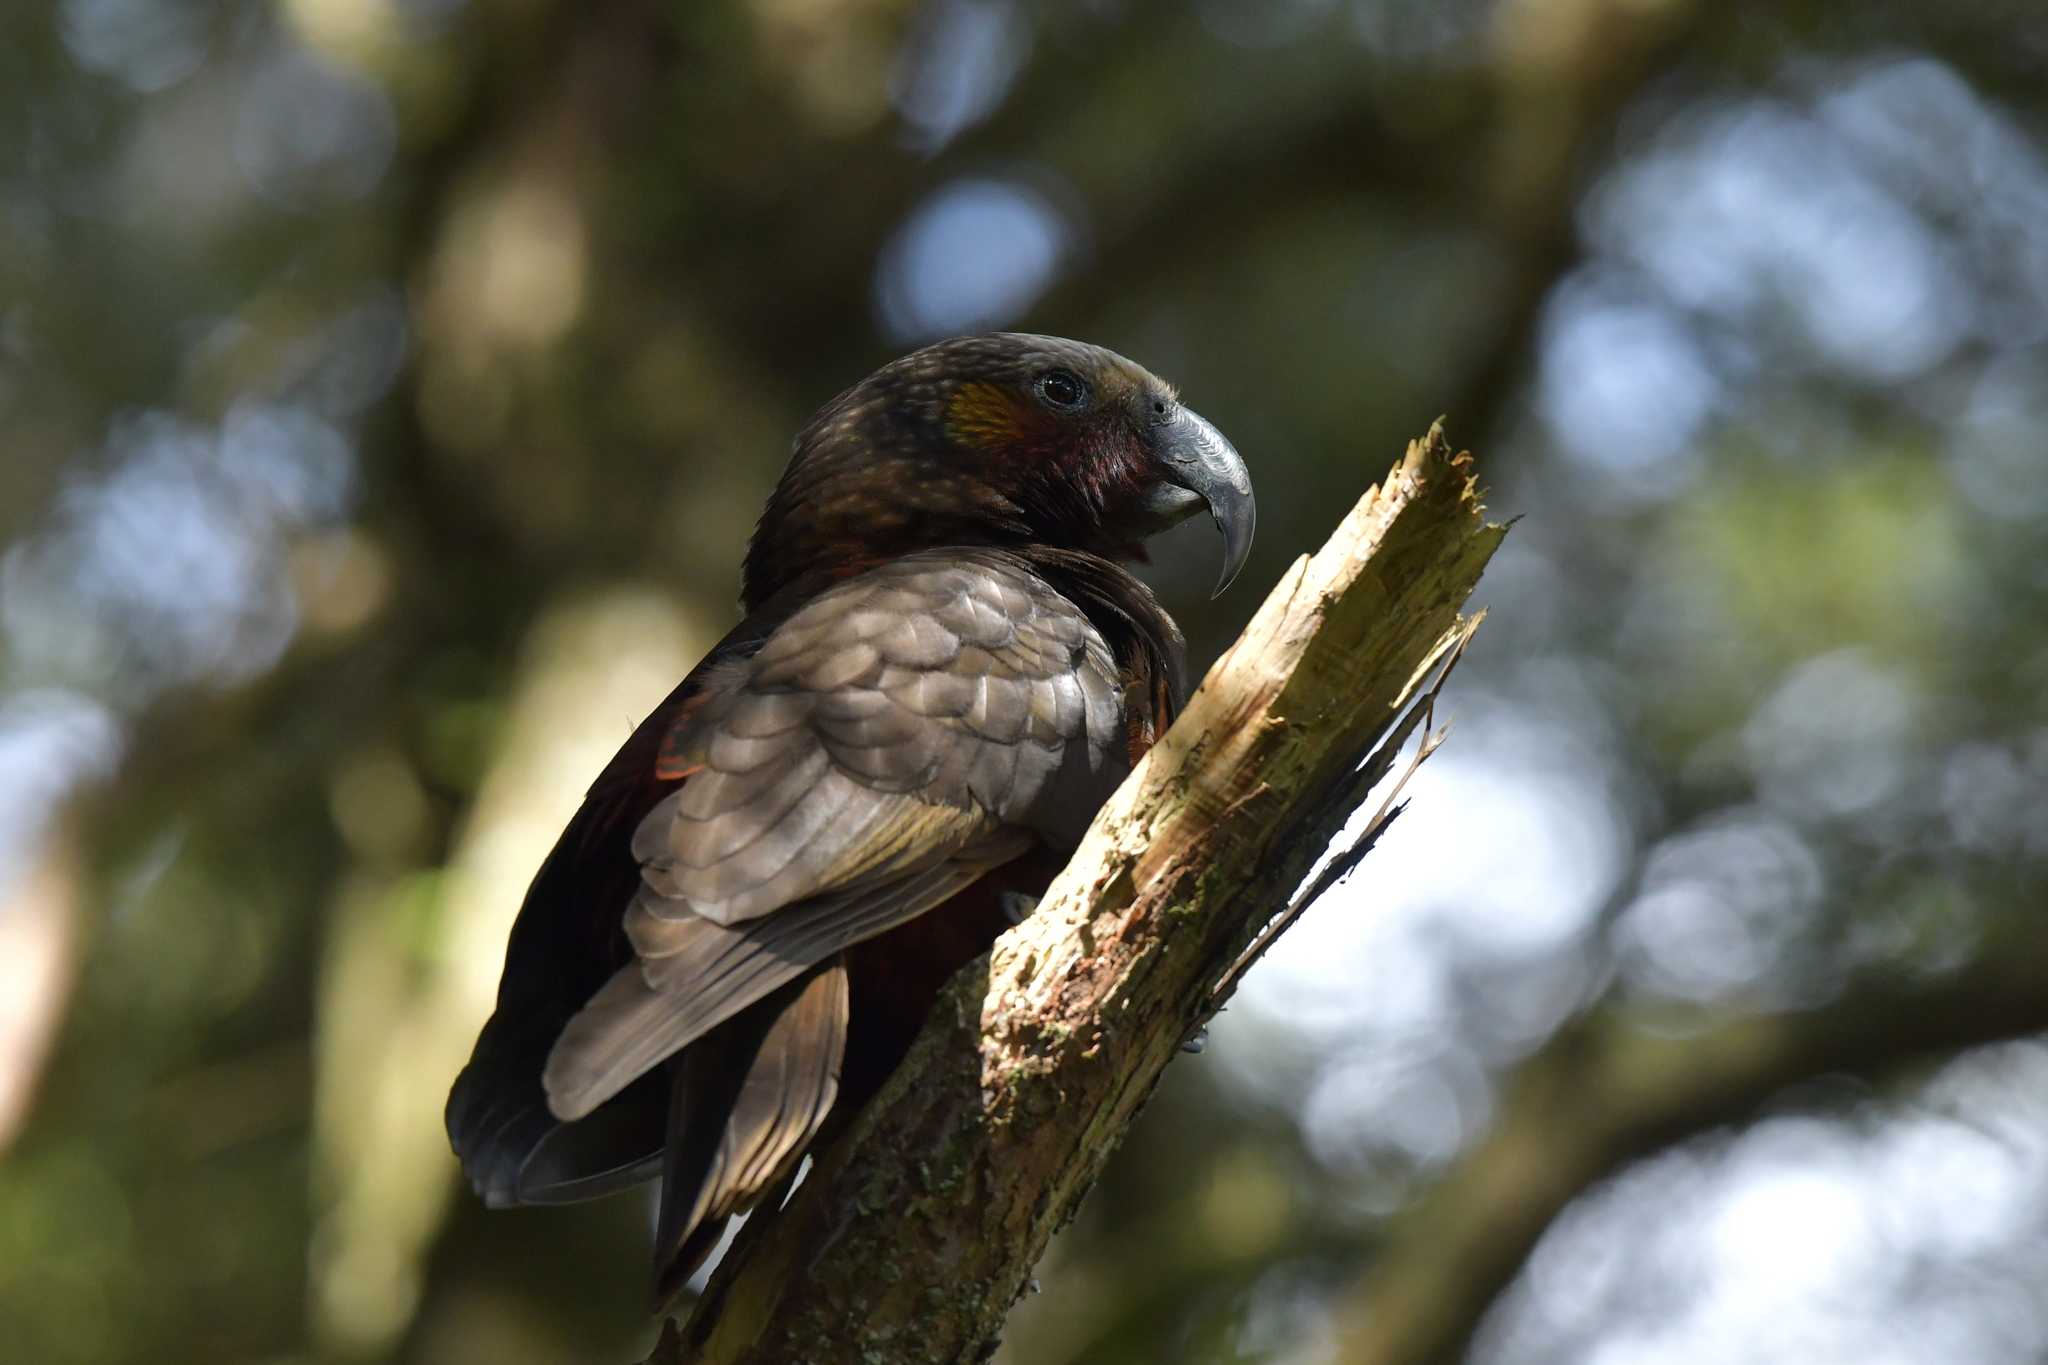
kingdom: Animalia
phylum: Chordata
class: Aves
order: Psittaciformes
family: Psittacidae
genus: Nestor
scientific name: Nestor meridionalis
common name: New zealand kaka
